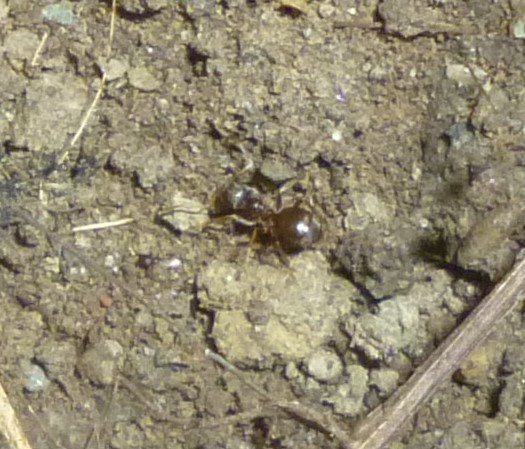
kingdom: Animalia
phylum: Arthropoda
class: Insecta
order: Hymenoptera
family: Formicidae
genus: Lasius
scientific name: Lasius
